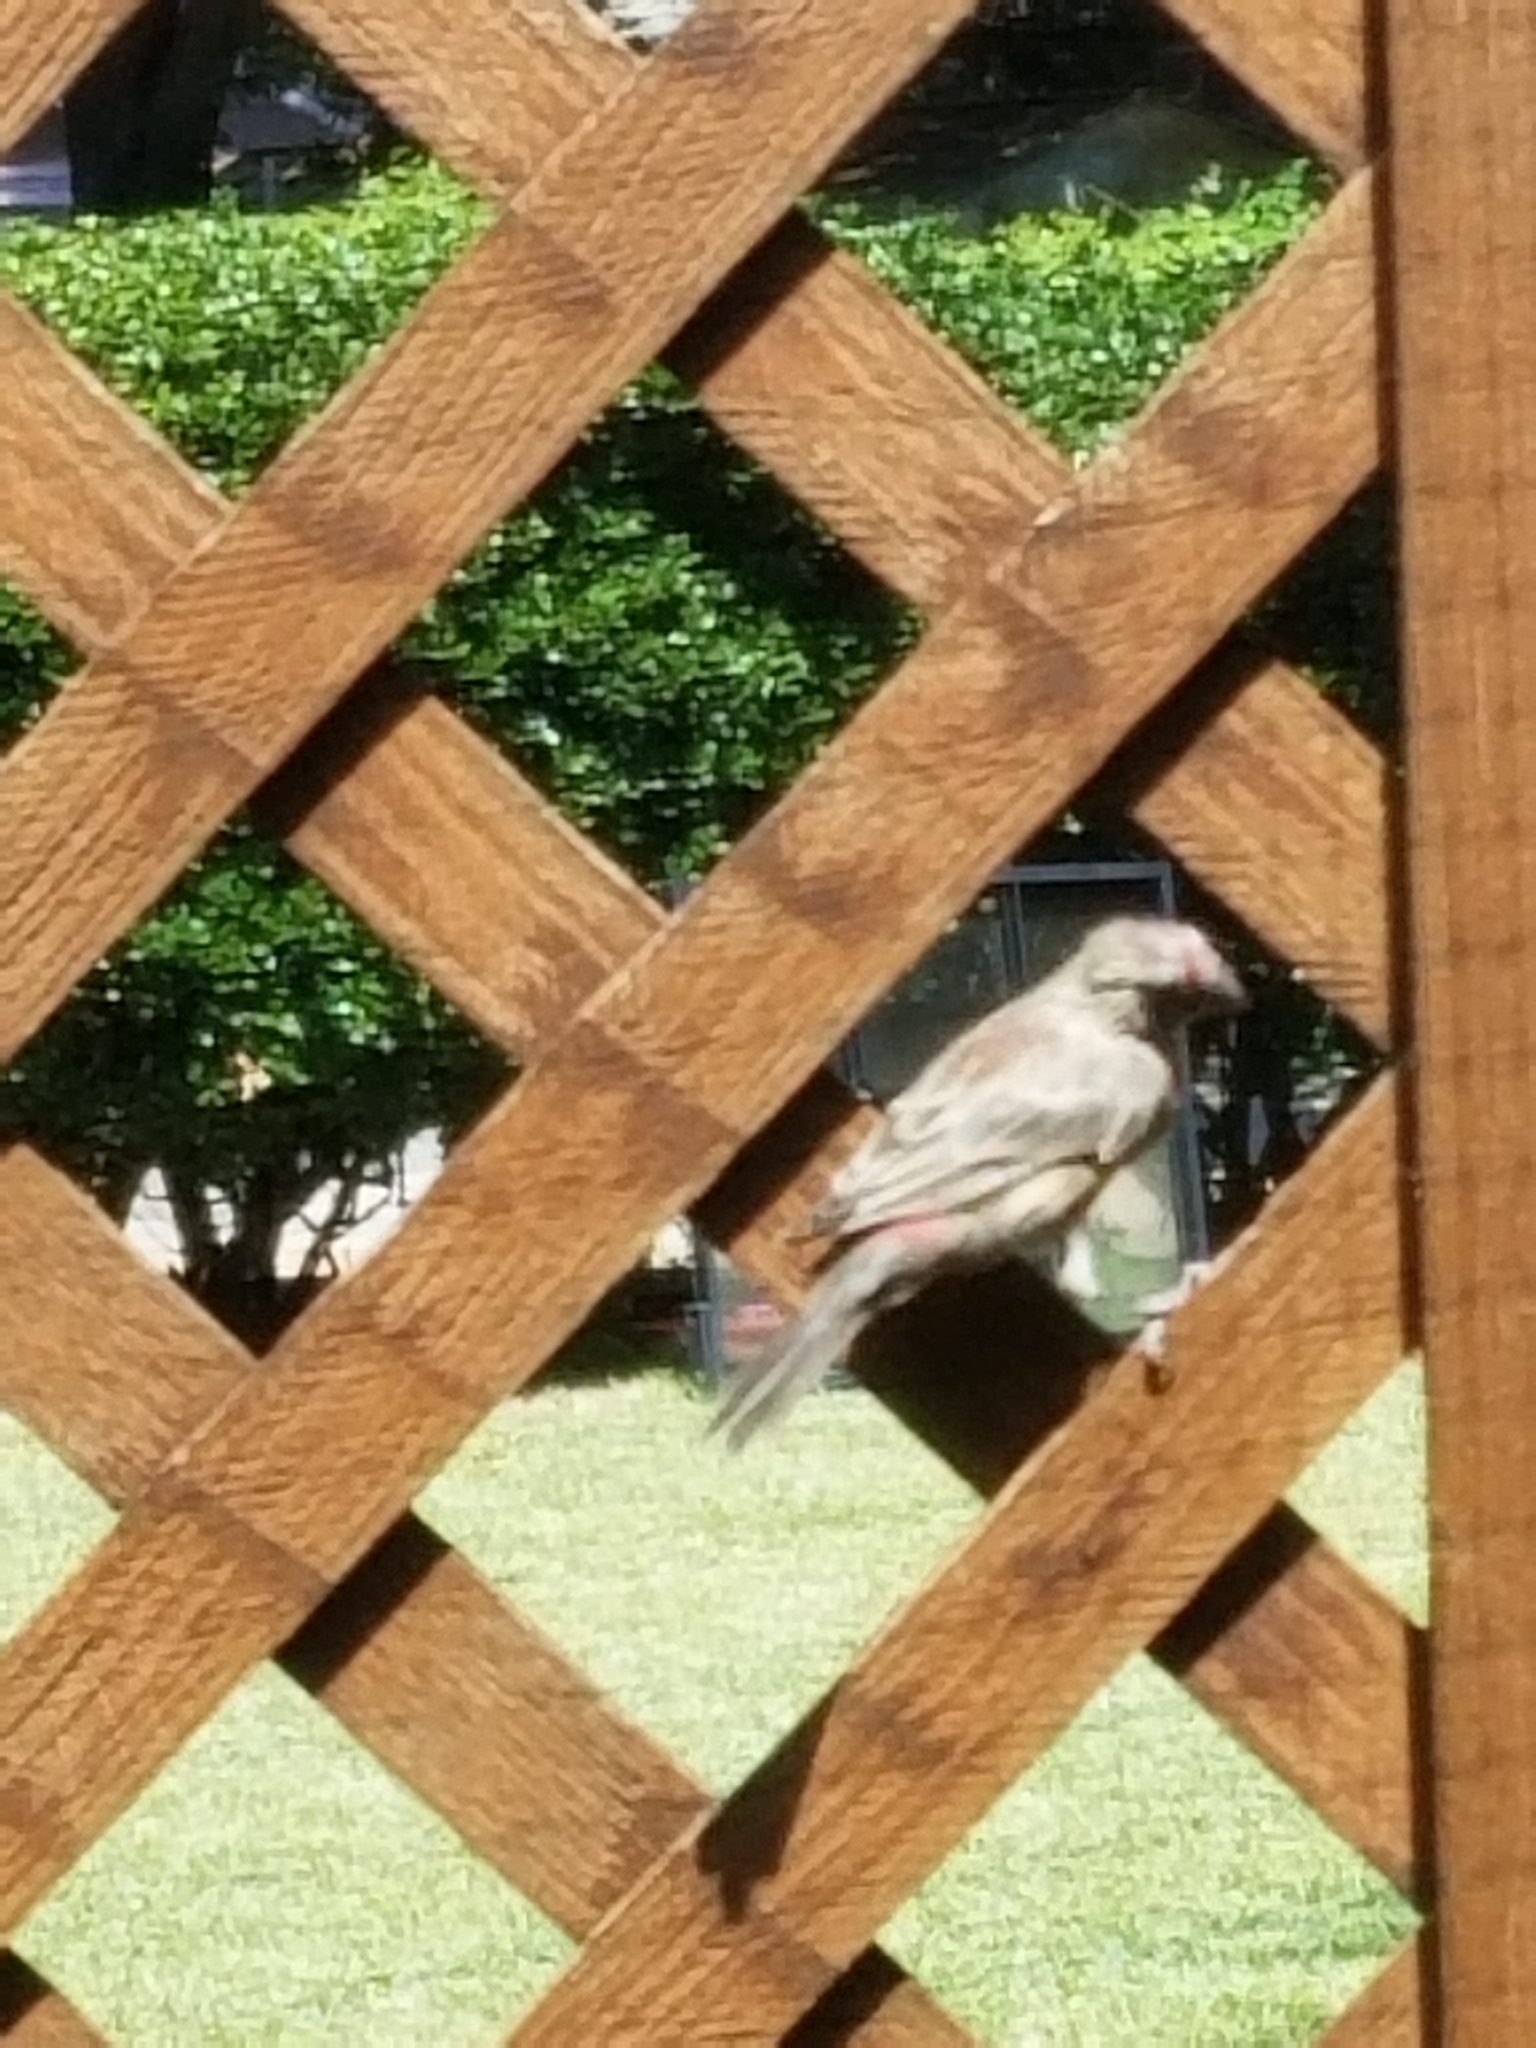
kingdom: Animalia
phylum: Chordata
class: Aves
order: Passeriformes
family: Fringillidae
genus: Haemorhous
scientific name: Haemorhous mexicanus
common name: House finch
